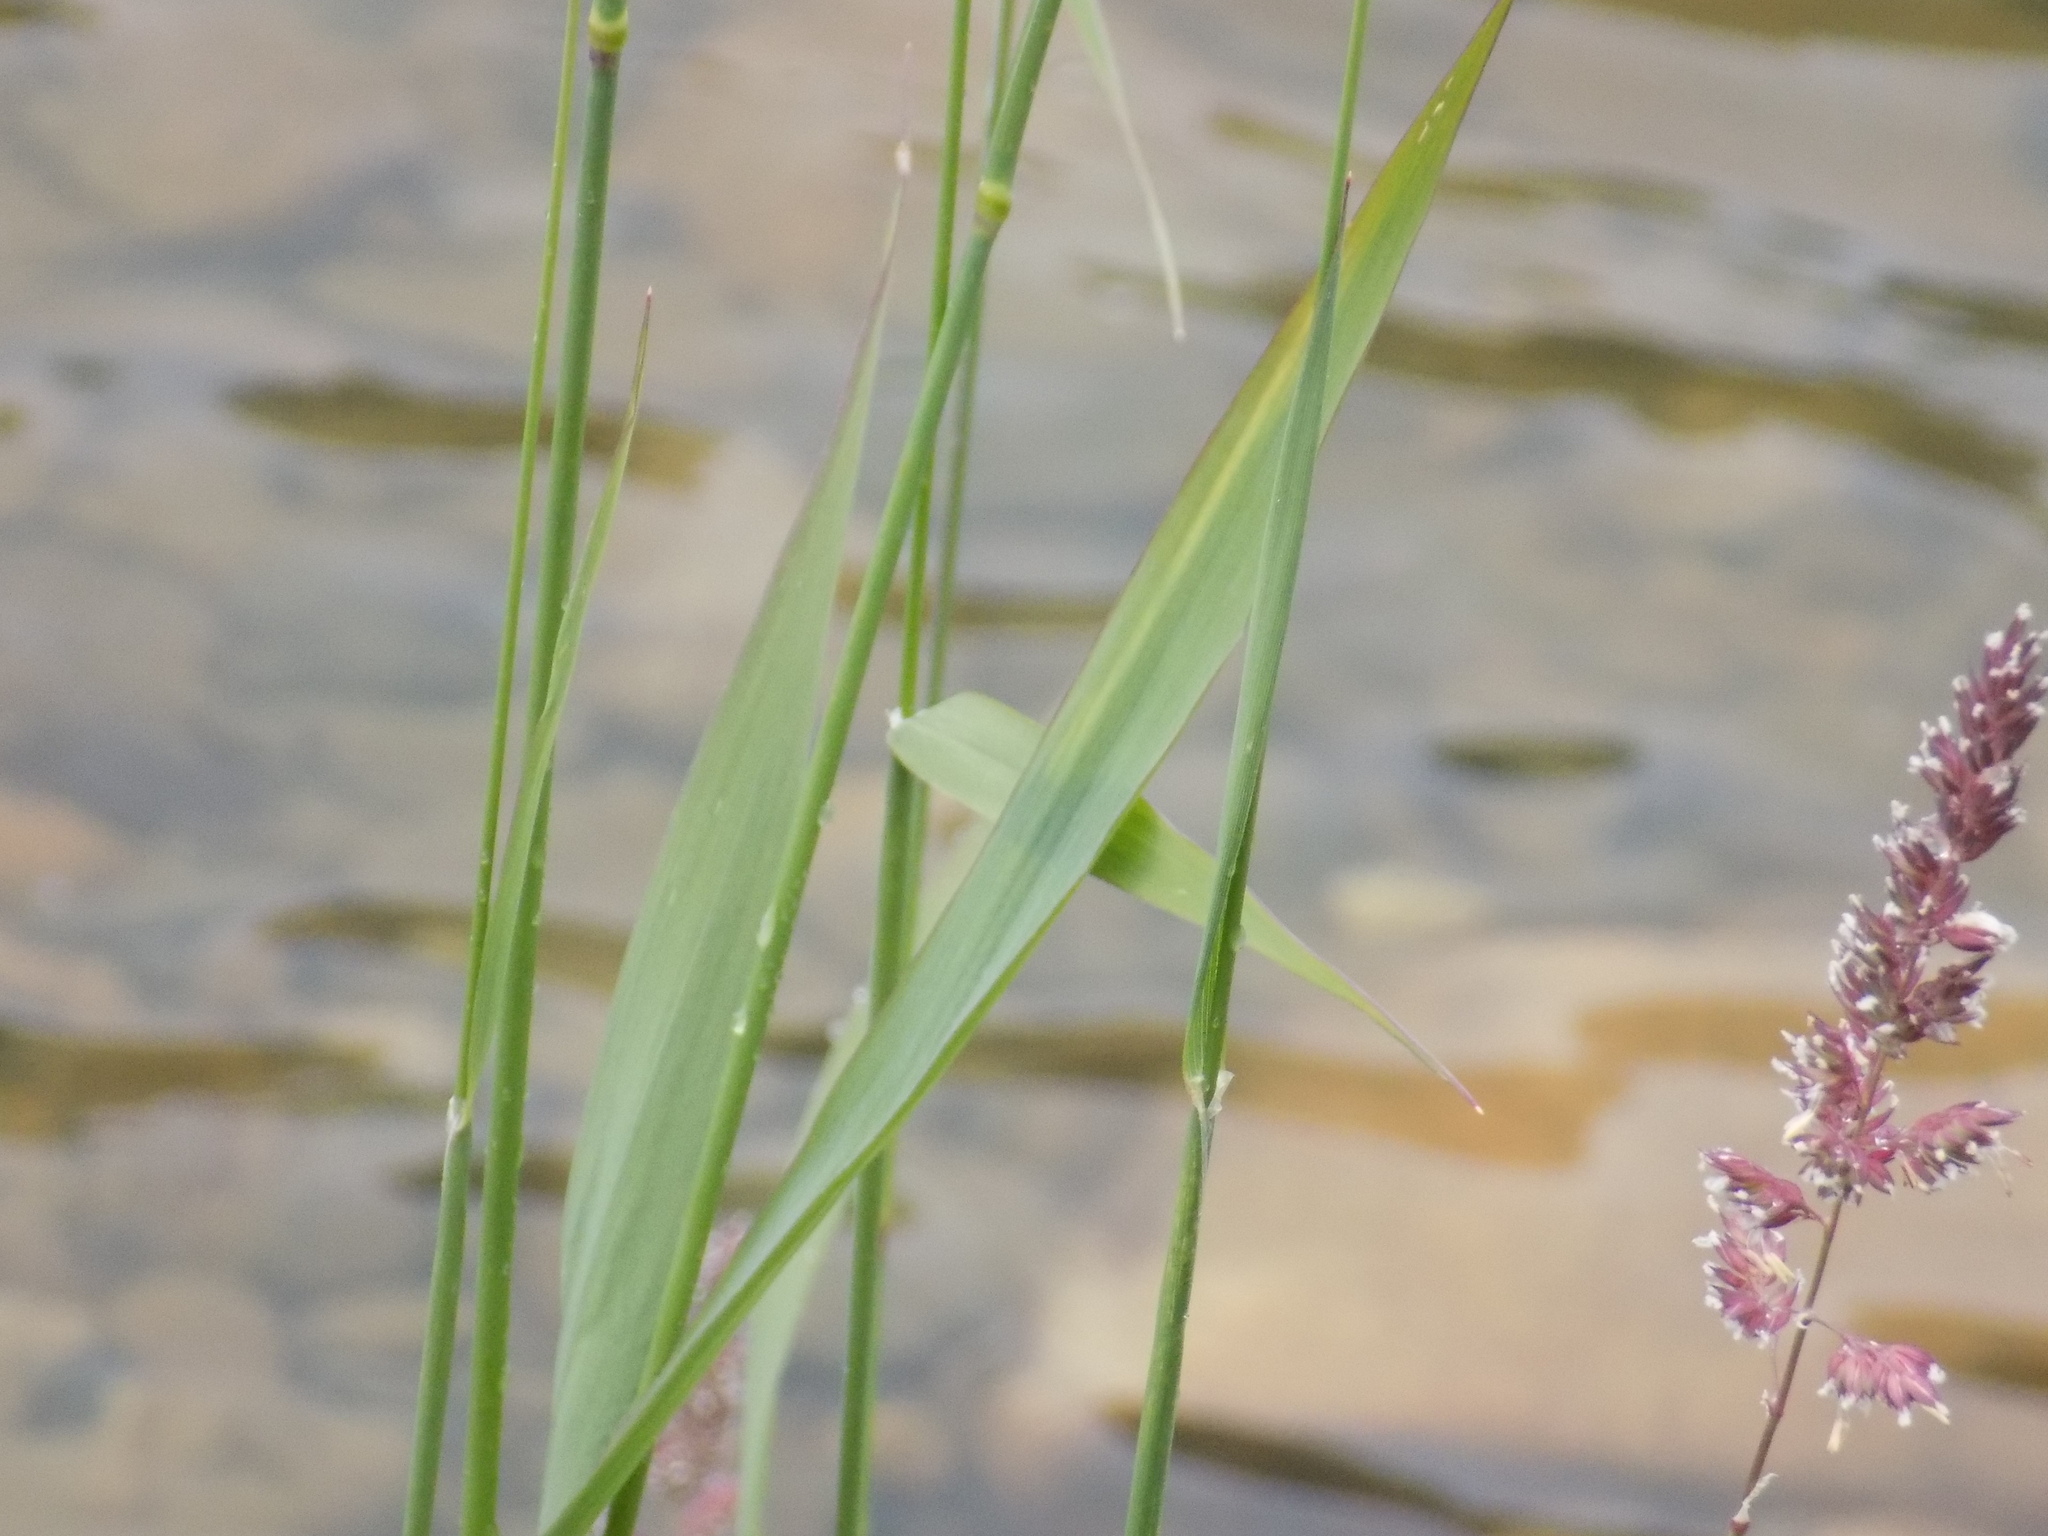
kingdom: Plantae
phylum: Tracheophyta
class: Liliopsida
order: Poales
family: Poaceae
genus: Phalaris
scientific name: Phalaris arundinacea
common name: Reed canary-grass
